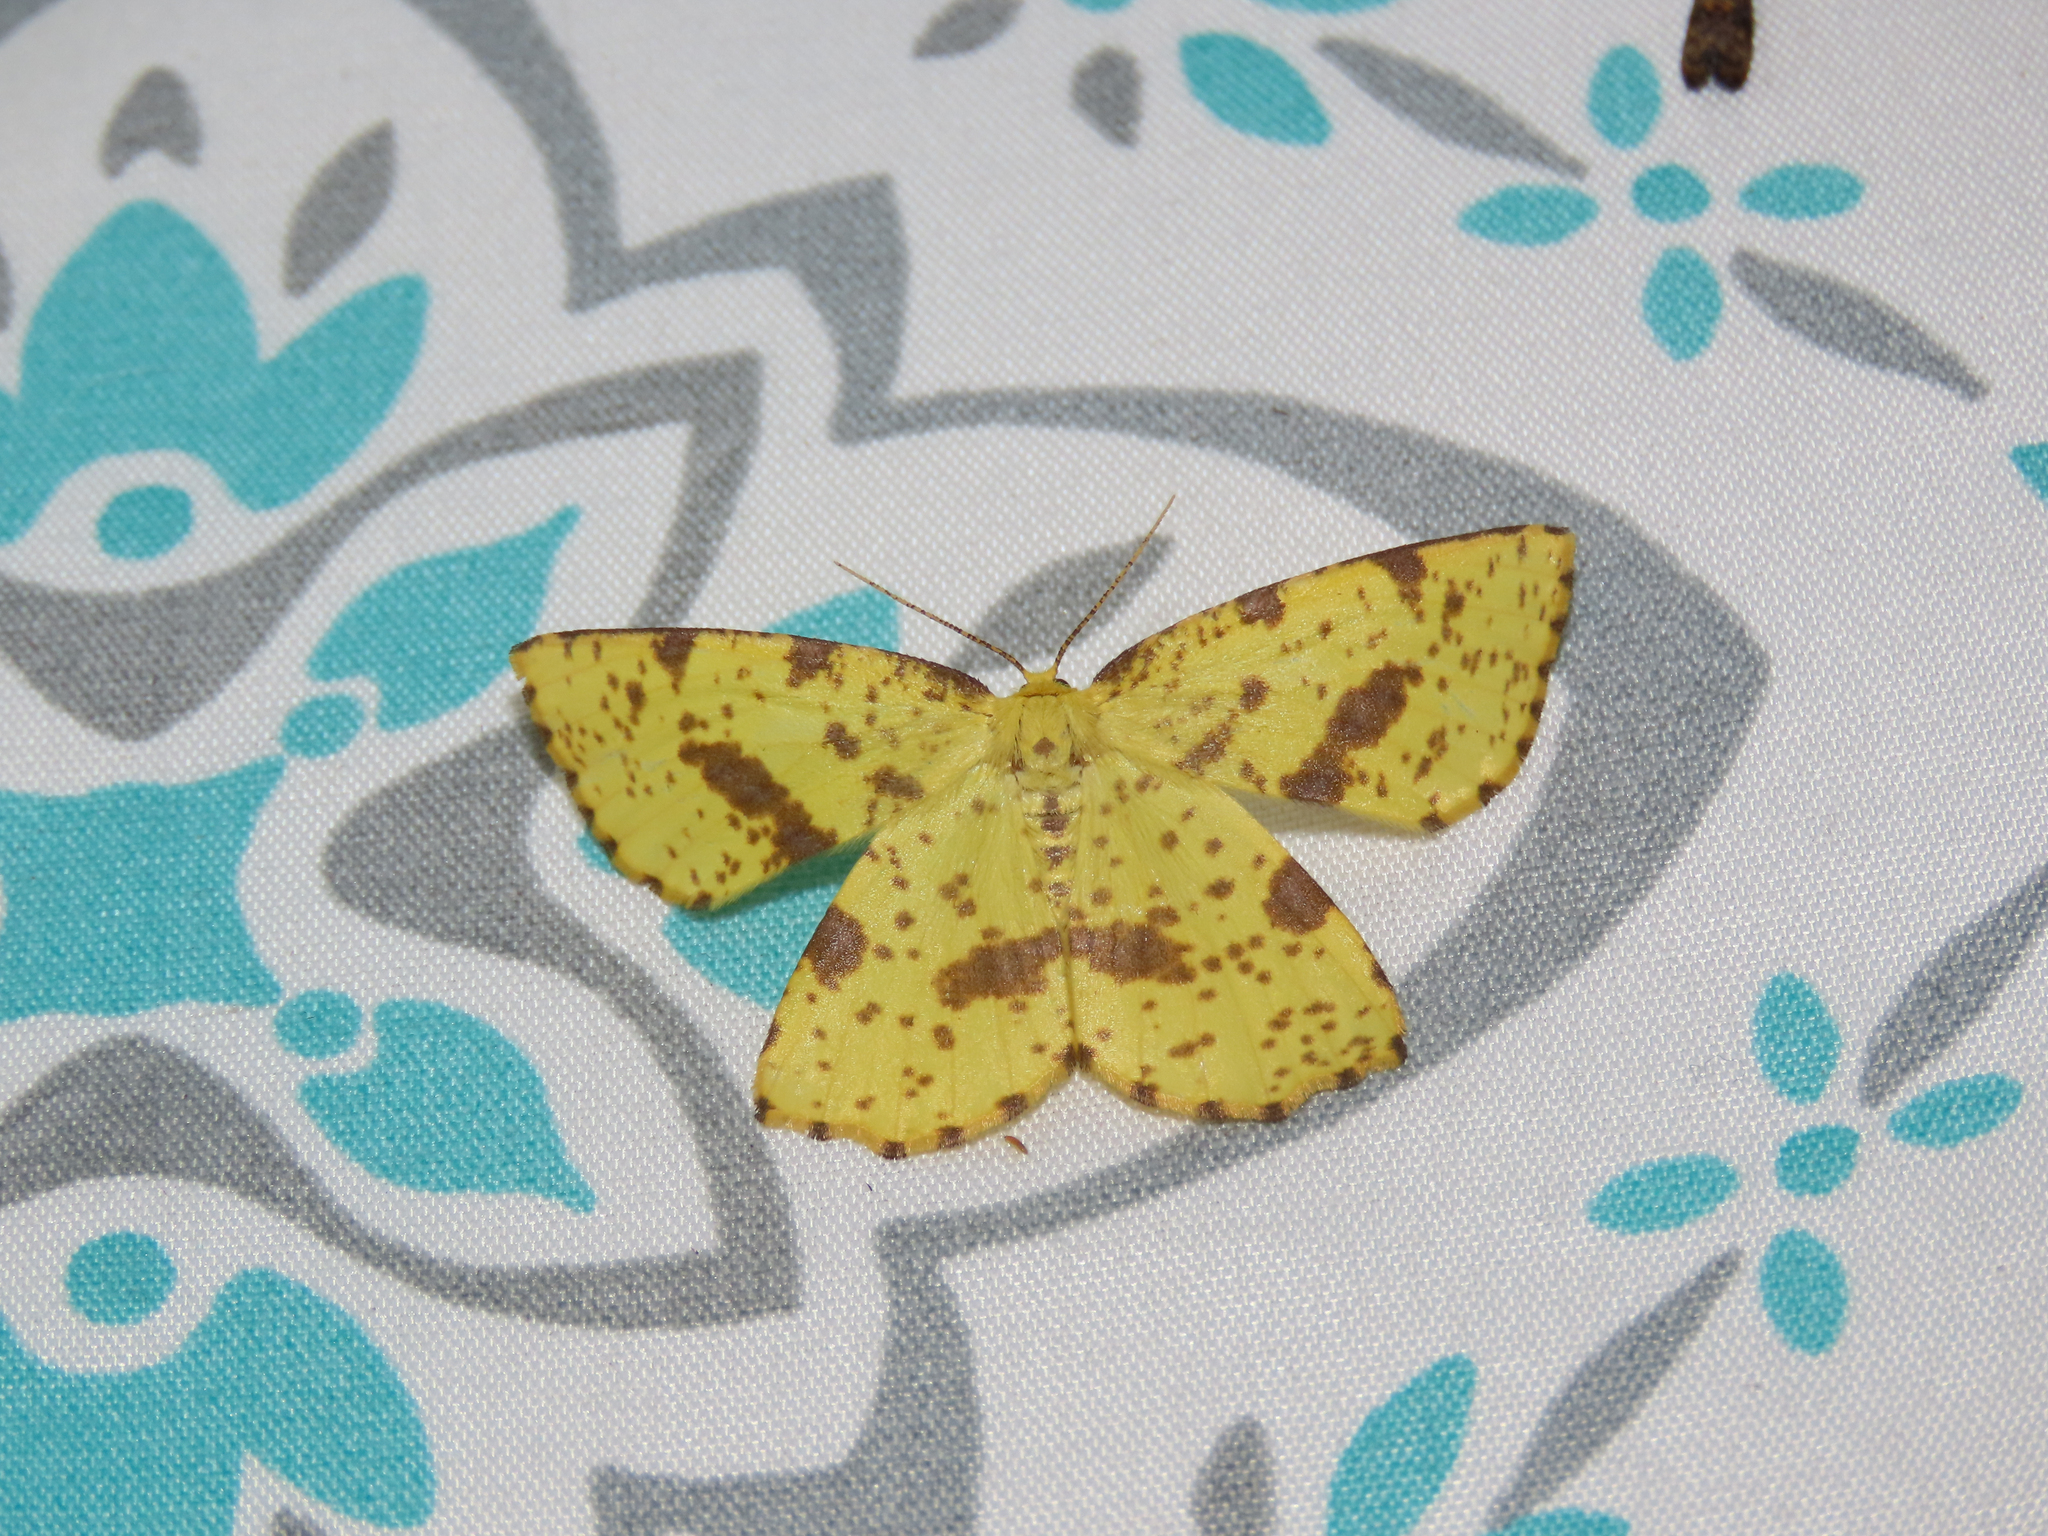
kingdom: Animalia
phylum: Arthropoda
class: Insecta
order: Lepidoptera
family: Geometridae
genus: Xanthotype
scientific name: Xanthotype
